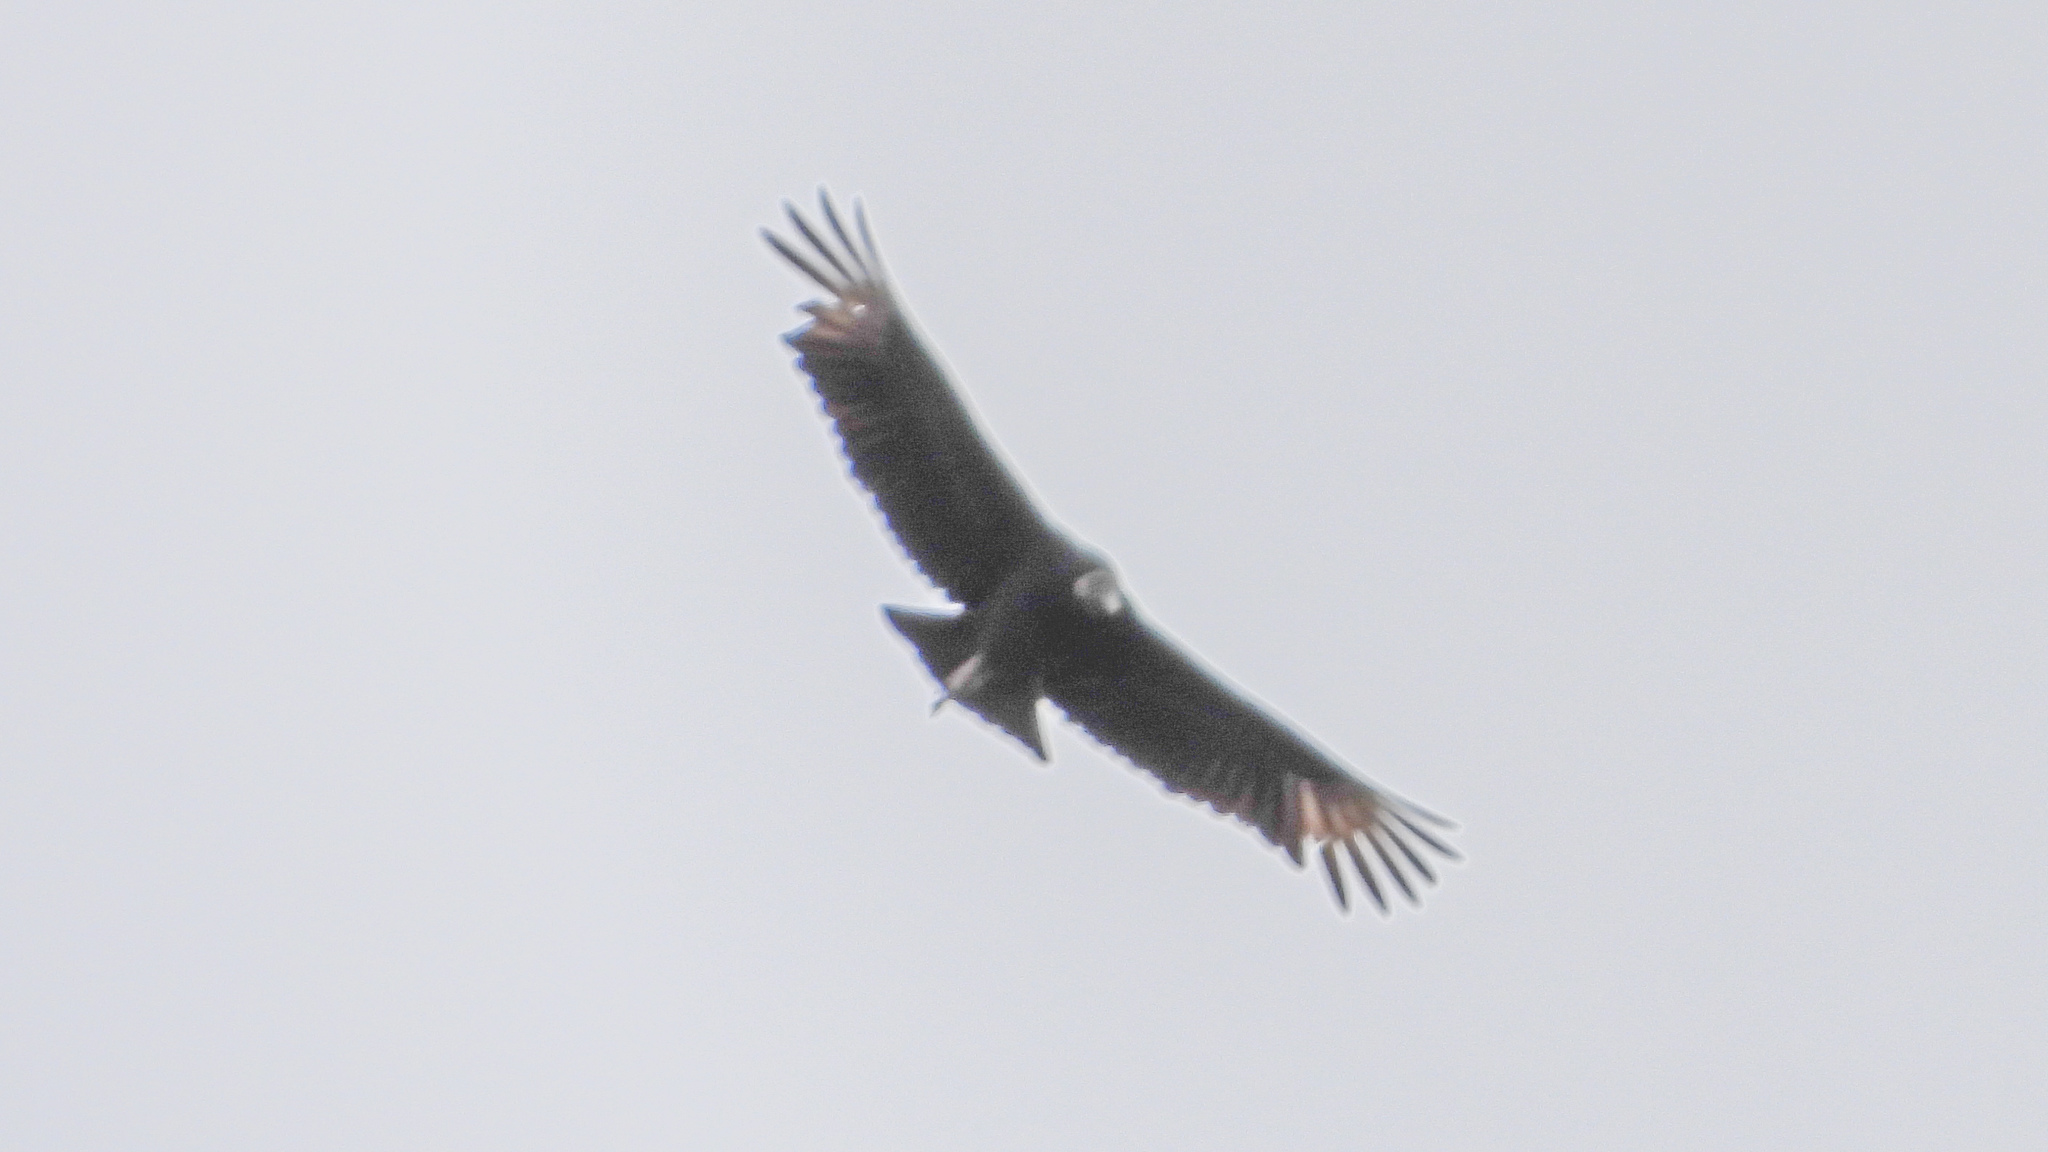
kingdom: Animalia
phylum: Chordata
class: Aves
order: Accipitriformes
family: Cathartidae
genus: Coragyps
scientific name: Coragyps atratus
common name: Black vulture
